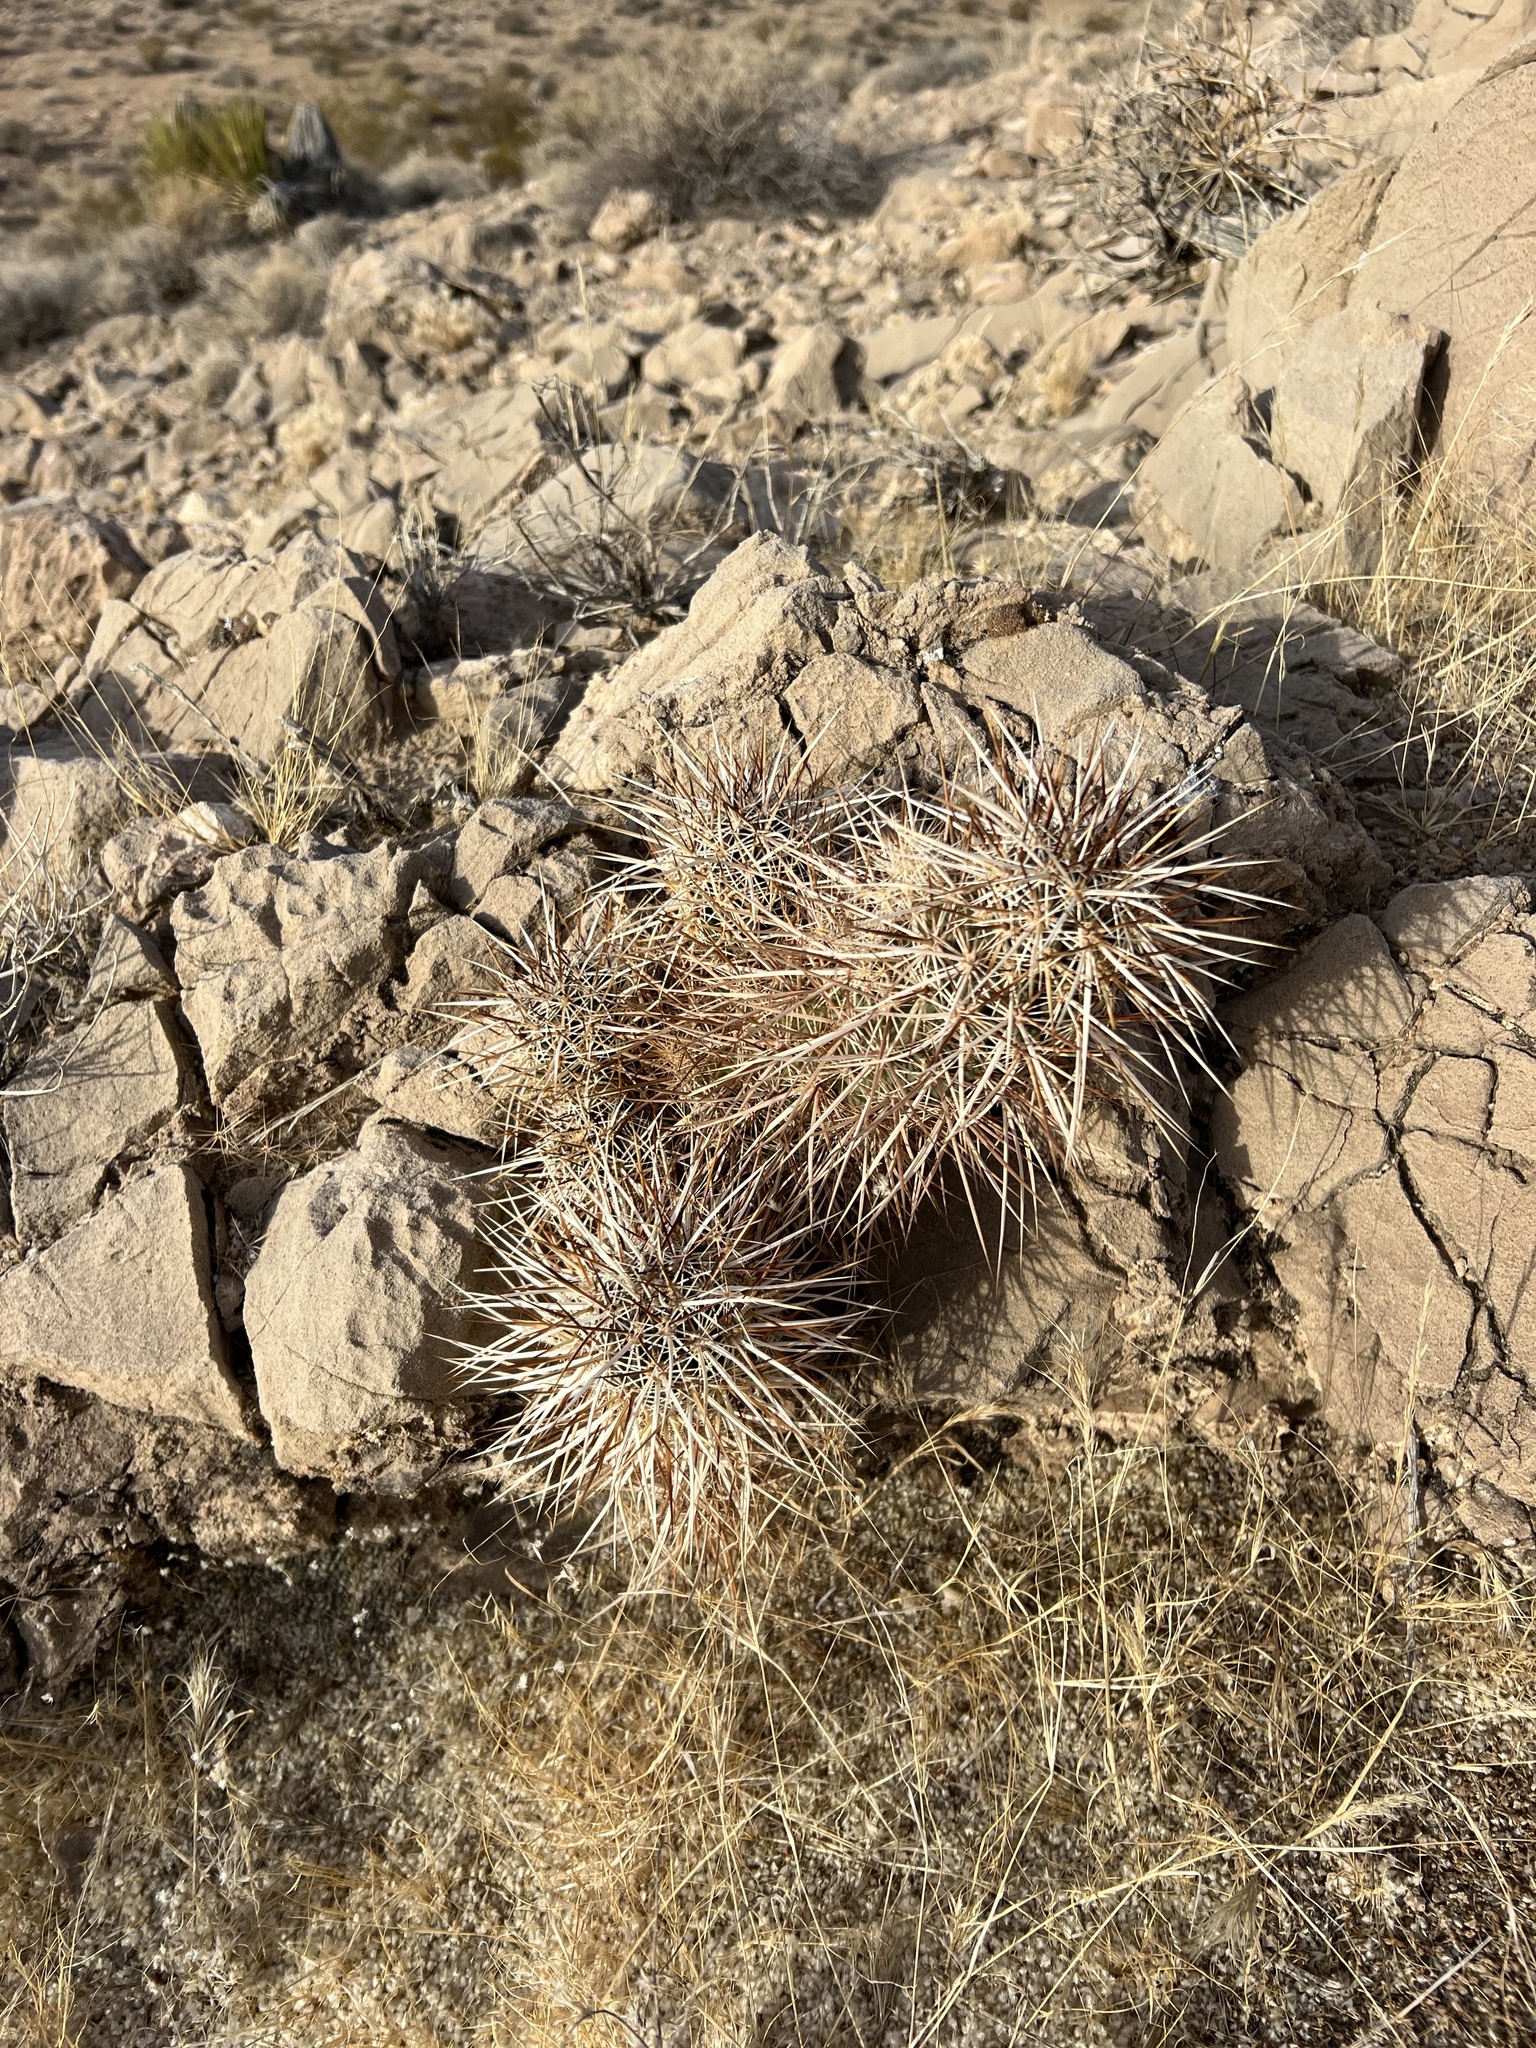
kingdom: Plantae
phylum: Tracheophyta
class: Magnoliopsida
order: Caryophyllales
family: Cactaceae
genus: Echinocereus
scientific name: Echinocereus engelmannii
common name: Engelmann's hedgehog cactus
